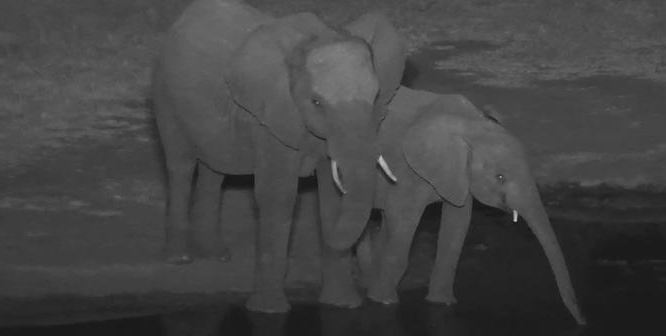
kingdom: Animalia
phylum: Chordata
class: Mammalia
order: Proboscidea
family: Elephantidae
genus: Loxodonta
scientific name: Loxodonta africana
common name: African elephant
